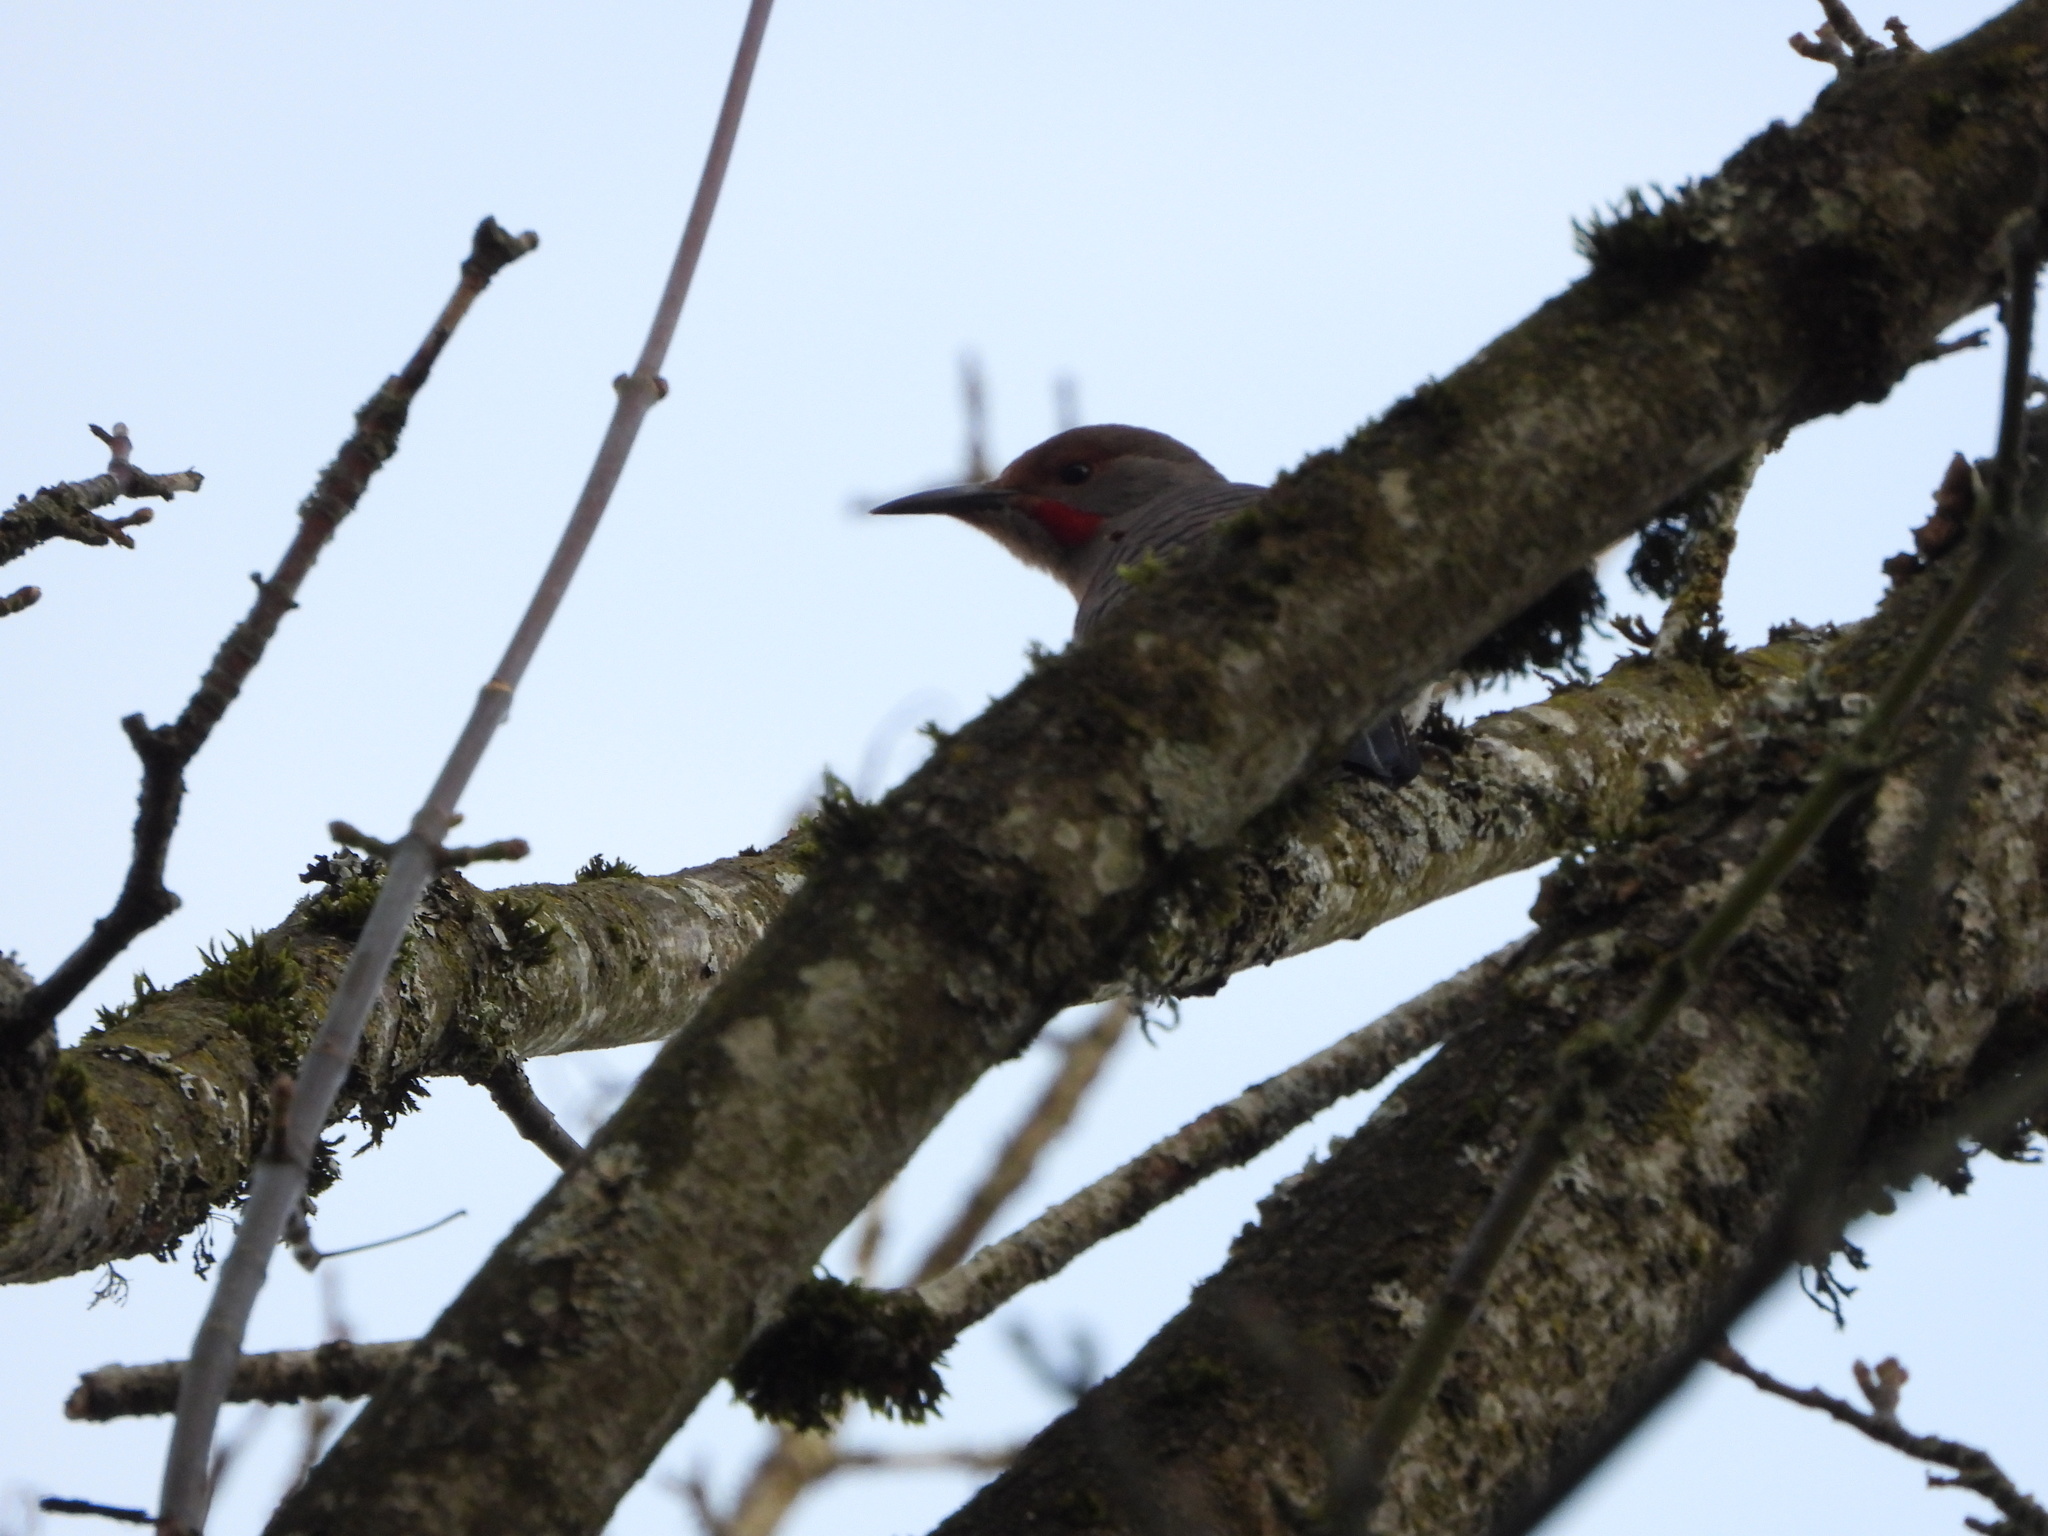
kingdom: Animalia
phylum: Chordata
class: Aves
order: Piciformes
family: Picidae
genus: Colaptes
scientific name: Colaptes auratus
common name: Northern flicker
